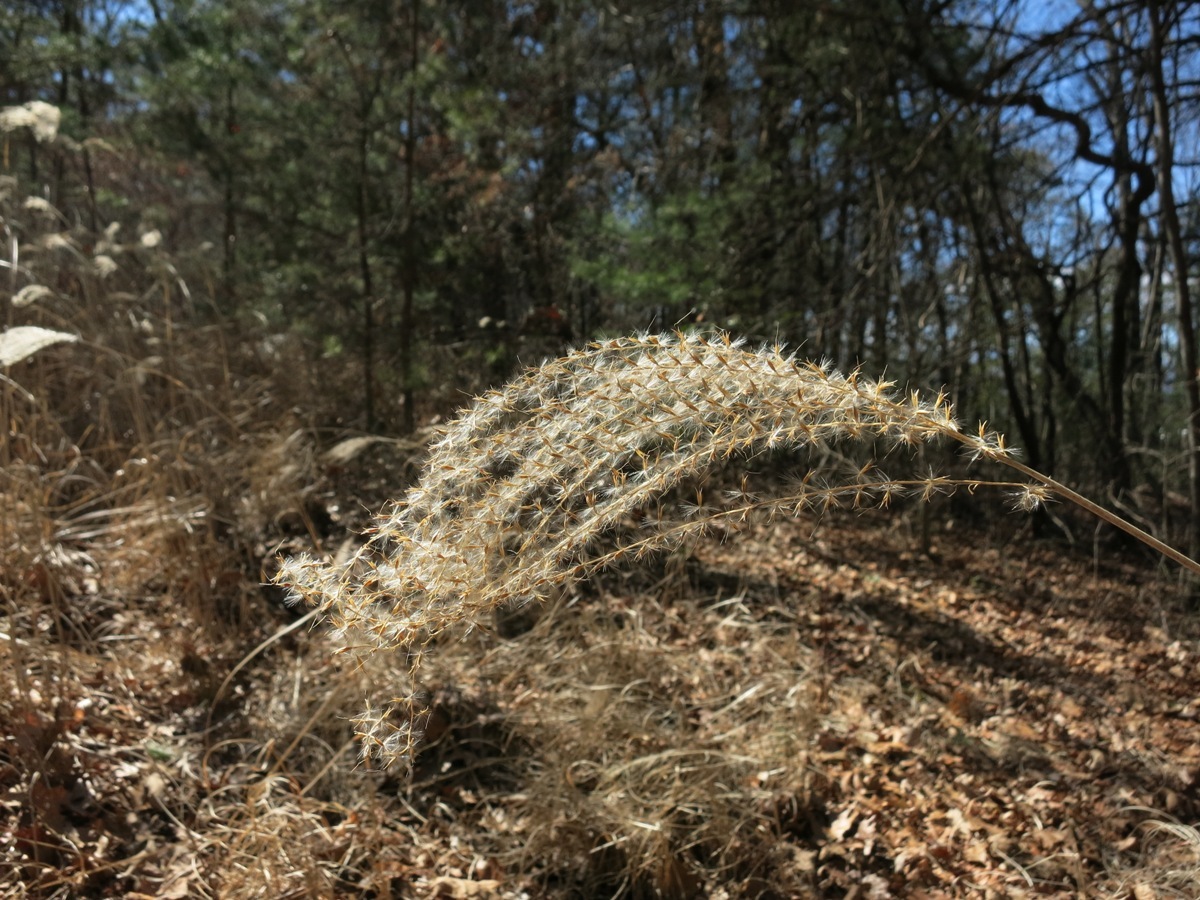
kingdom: Plantae
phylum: Tracheophyta
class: Liliopsida
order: Poales
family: Poaceae
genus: Miscanthus
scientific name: Miscanthus sinensis
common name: Chinese silvergrass
